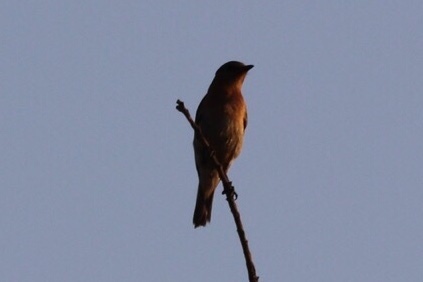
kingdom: Animalia
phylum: Chordata
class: Aves
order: Passeriformes
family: Turdidae
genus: Sialia
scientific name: Sialia sialis
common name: Eastern bluebird
